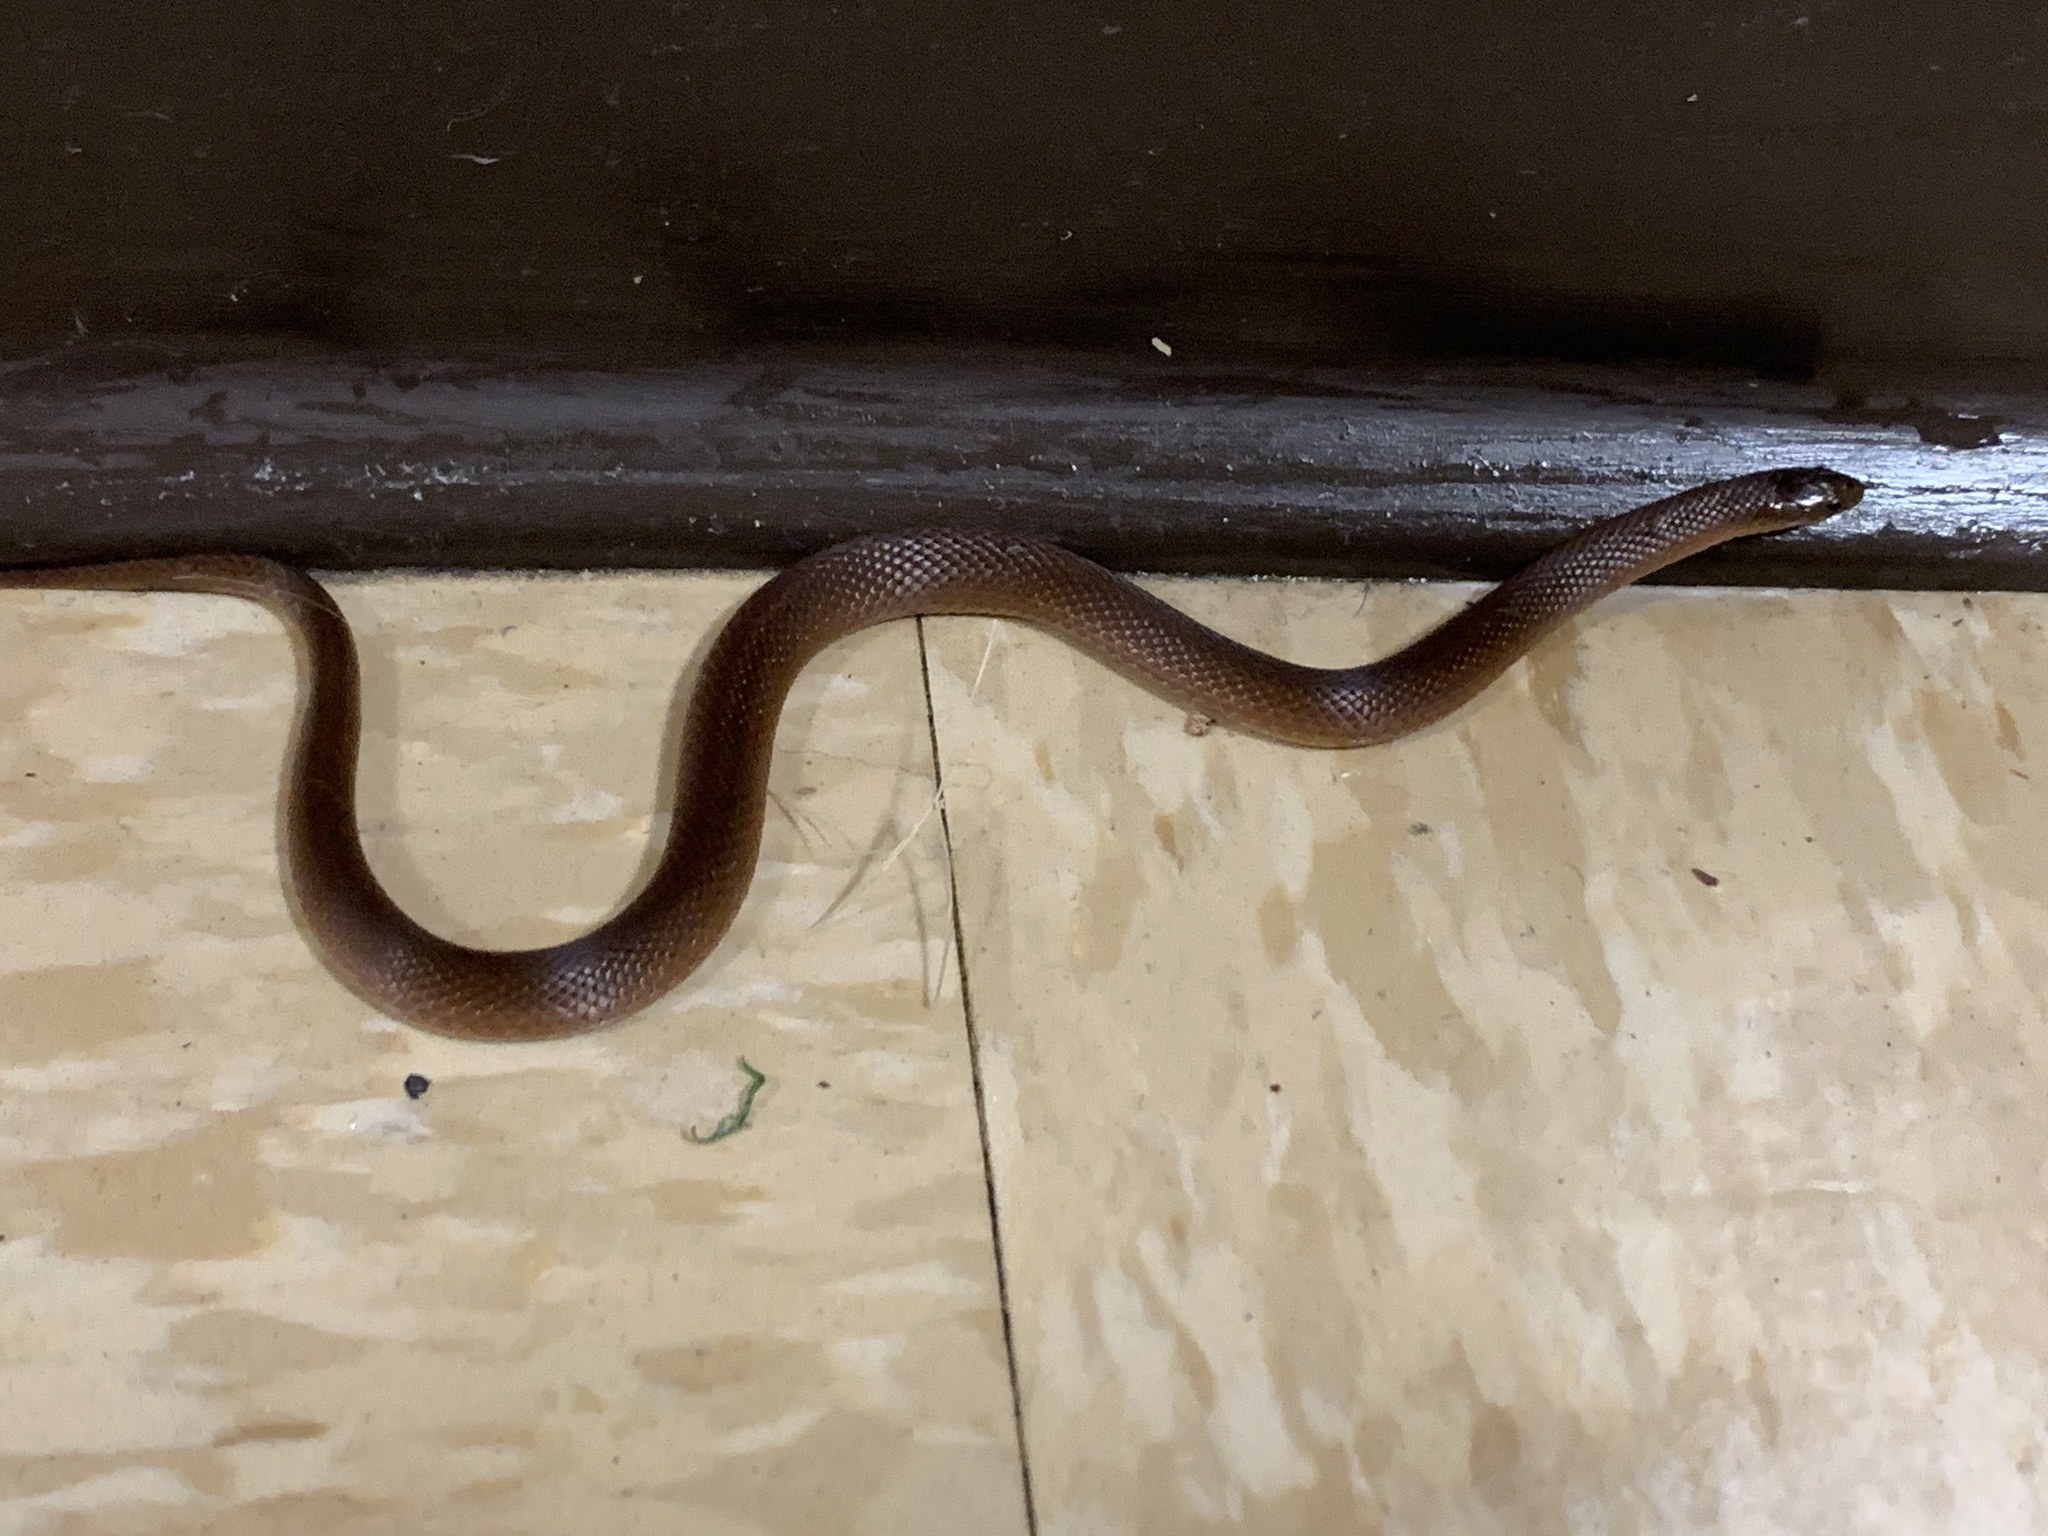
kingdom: Animalia
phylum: Chordata
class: Squamata
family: Colubridae
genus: Virginia
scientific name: Virginia valeriae
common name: Smooth earth snake
